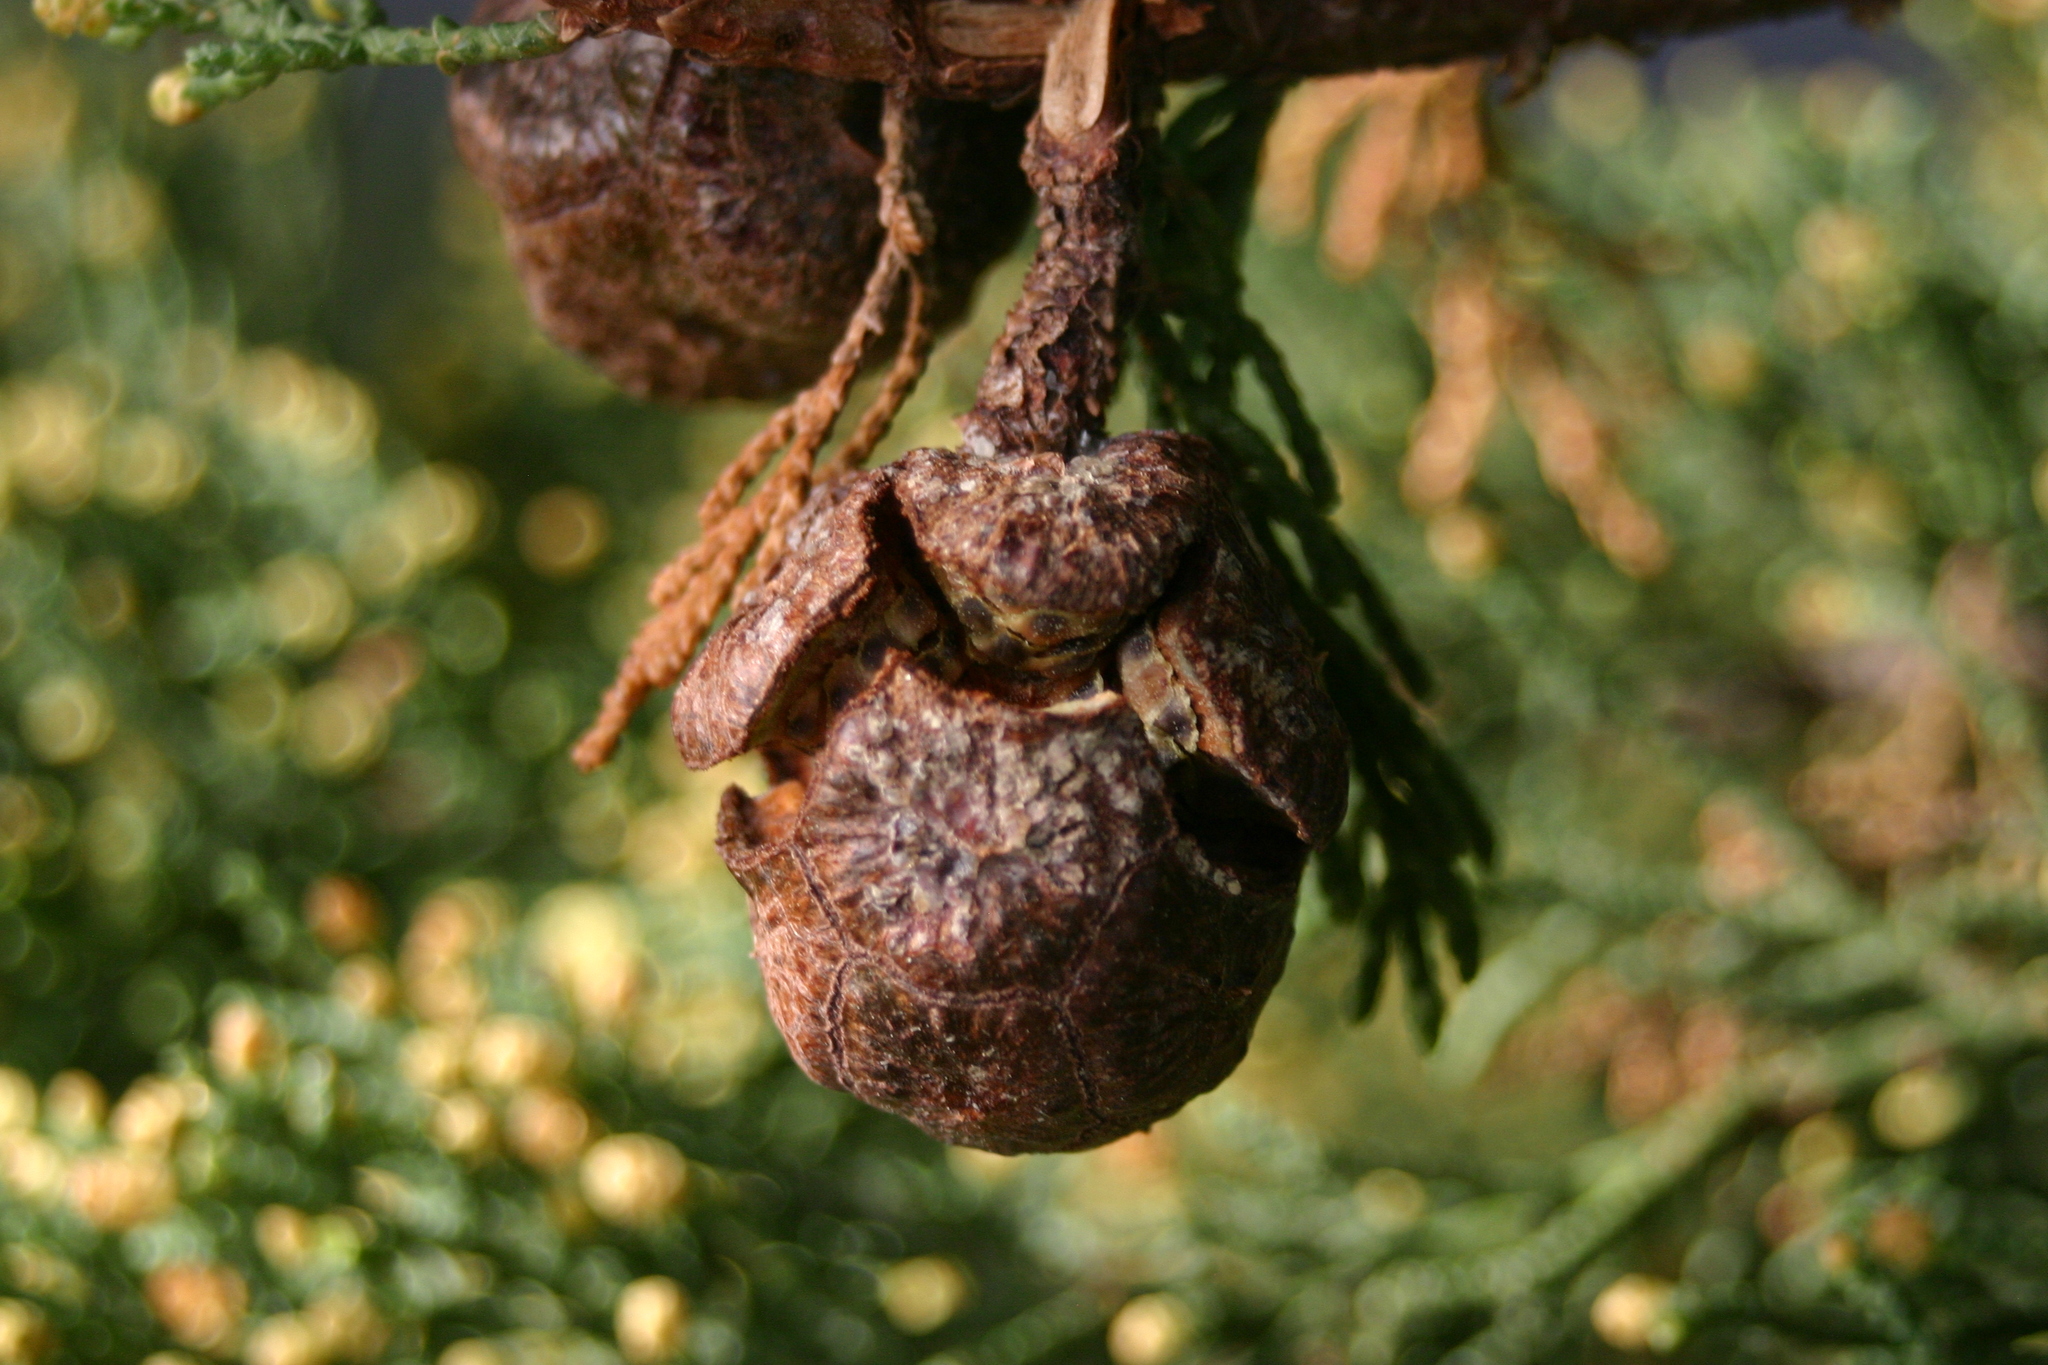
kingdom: Plantae
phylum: Tracheophyta
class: Pinopsida
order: Pinales
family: Cupressaceae
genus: Cupressus
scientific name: Cupressus macrocarpa
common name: Monterey cypress
